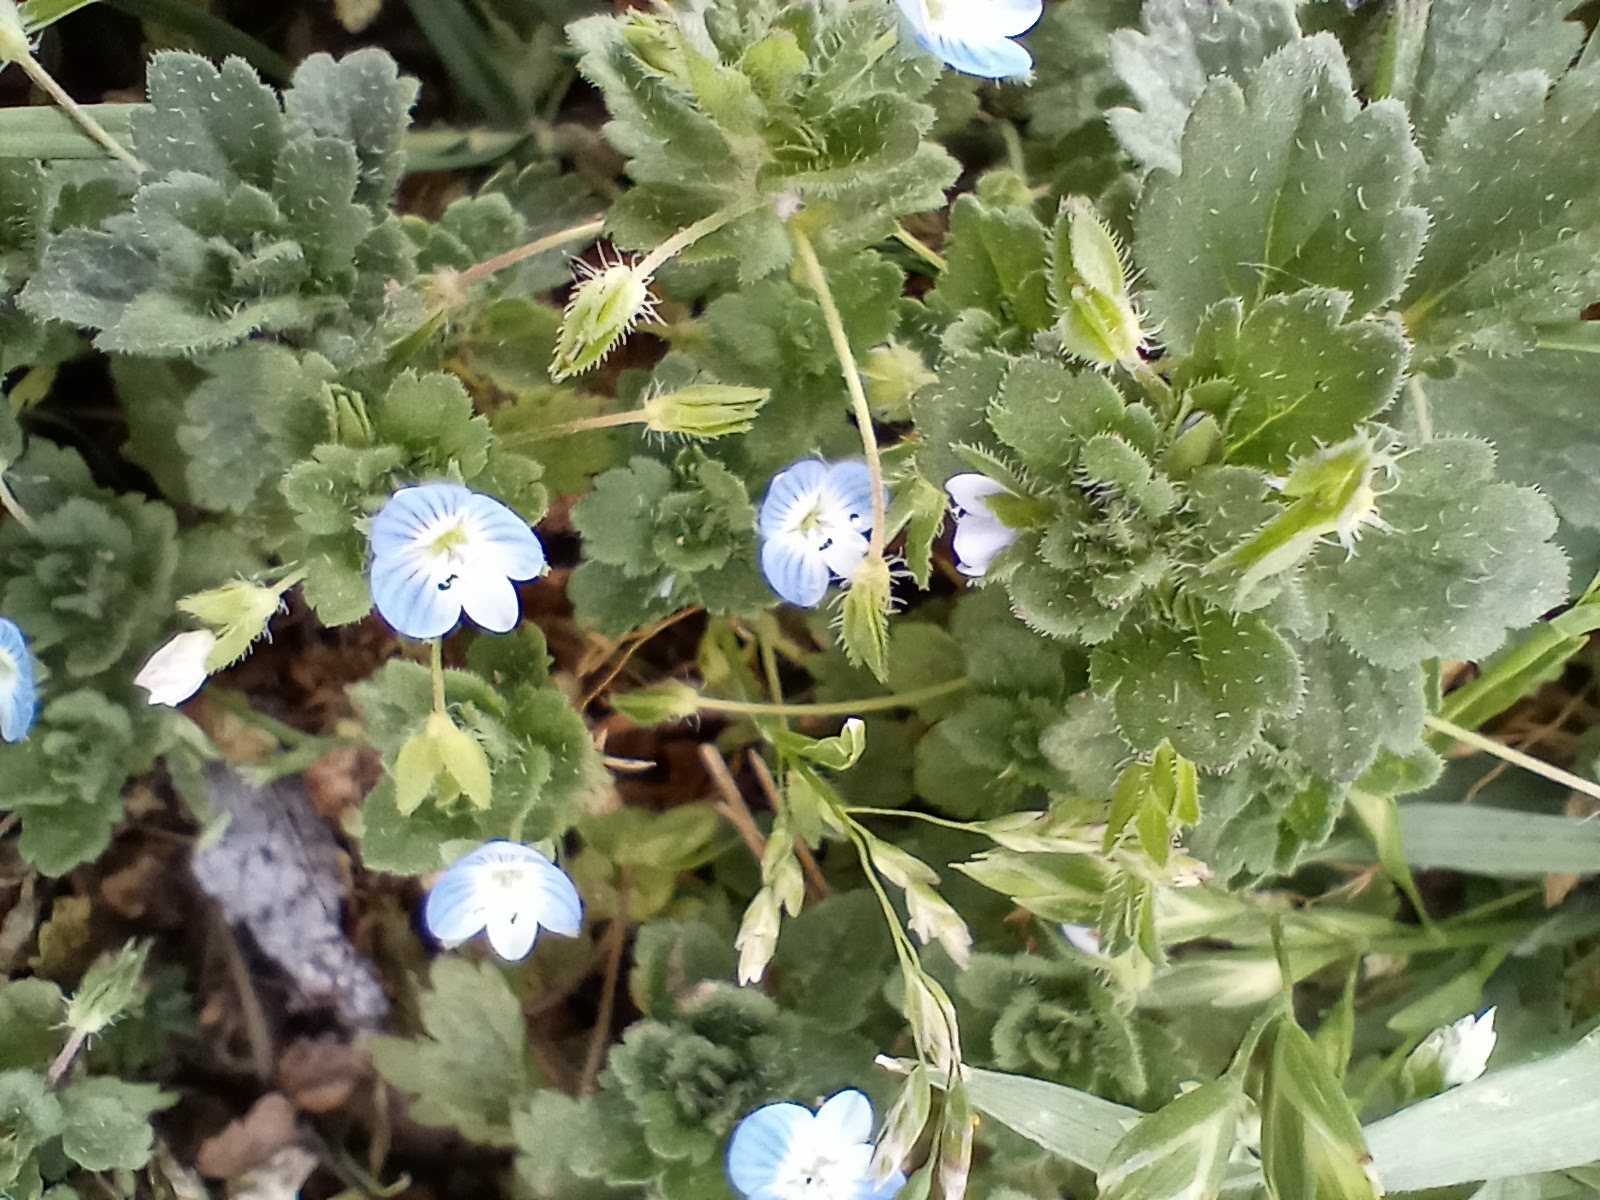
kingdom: Plantae
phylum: Tracheophyta
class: Magnoliopsida
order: Lamiales
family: Plantaginaceae
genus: Veronica
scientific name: Veronica persica
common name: Common field-speedwell
